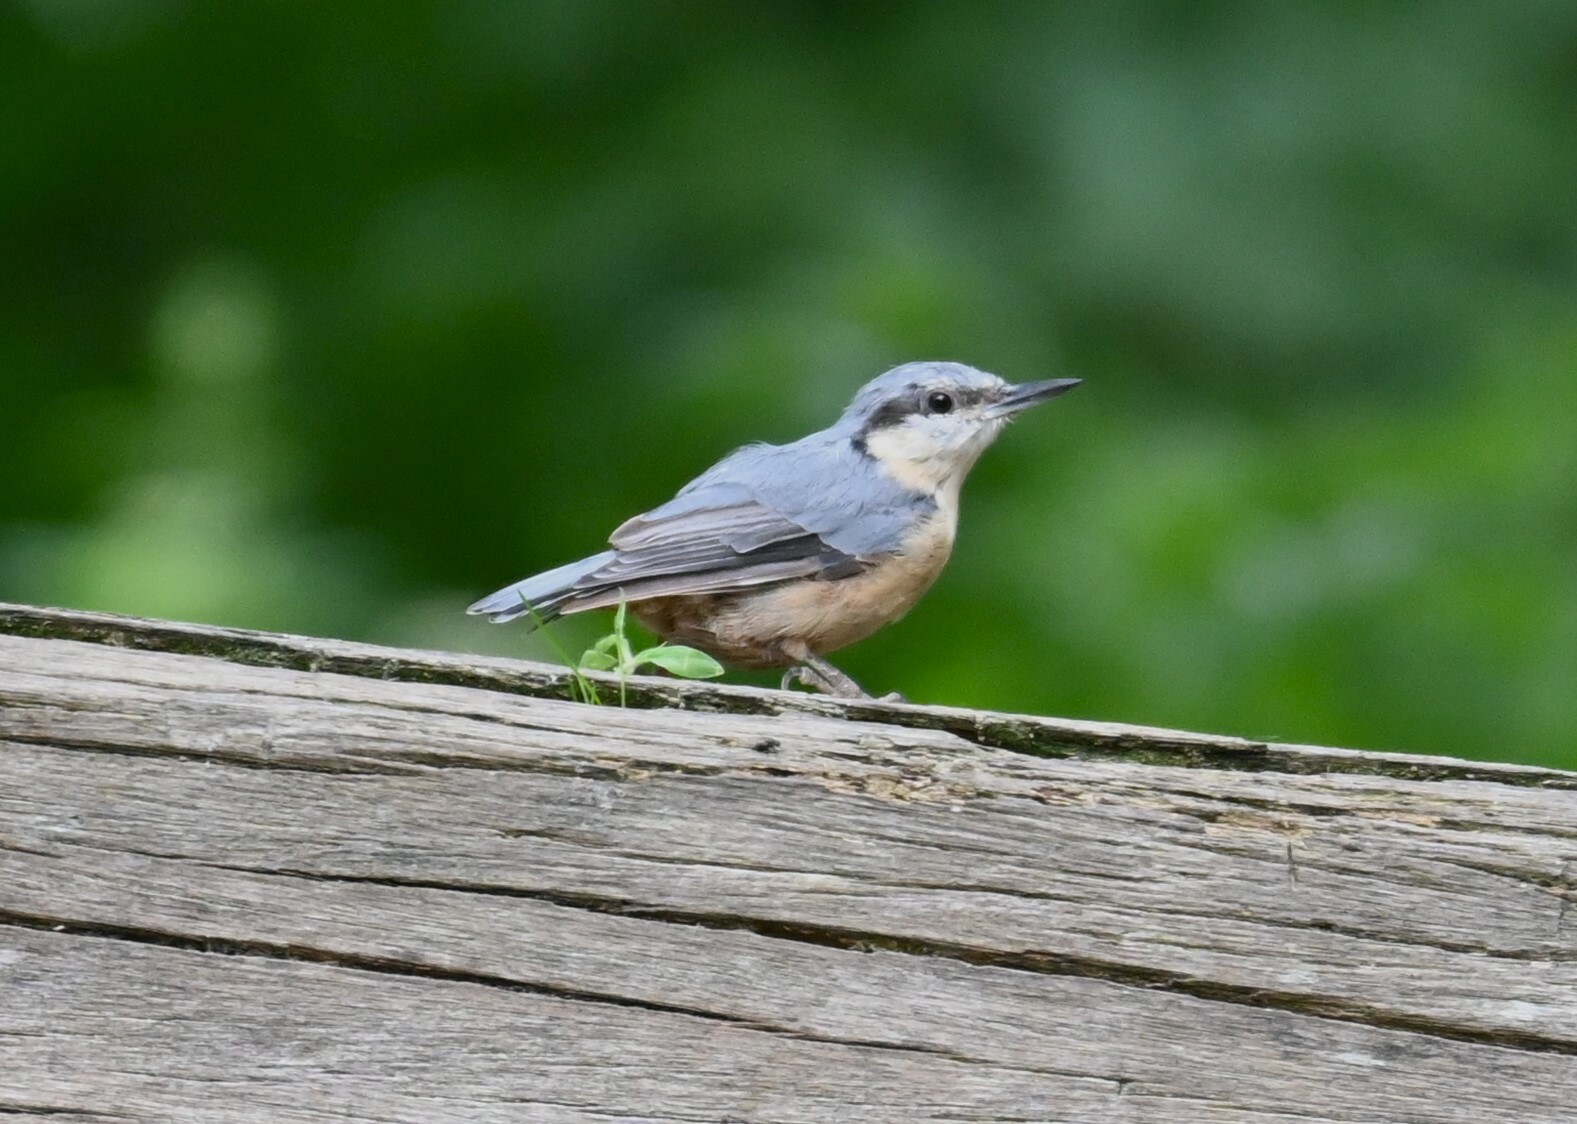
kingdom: Animalia
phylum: Chordata
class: Aves
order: Passeriformes
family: Sittidae
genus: Sitta
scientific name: Sitta europaea
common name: Eurasian nuthatch
